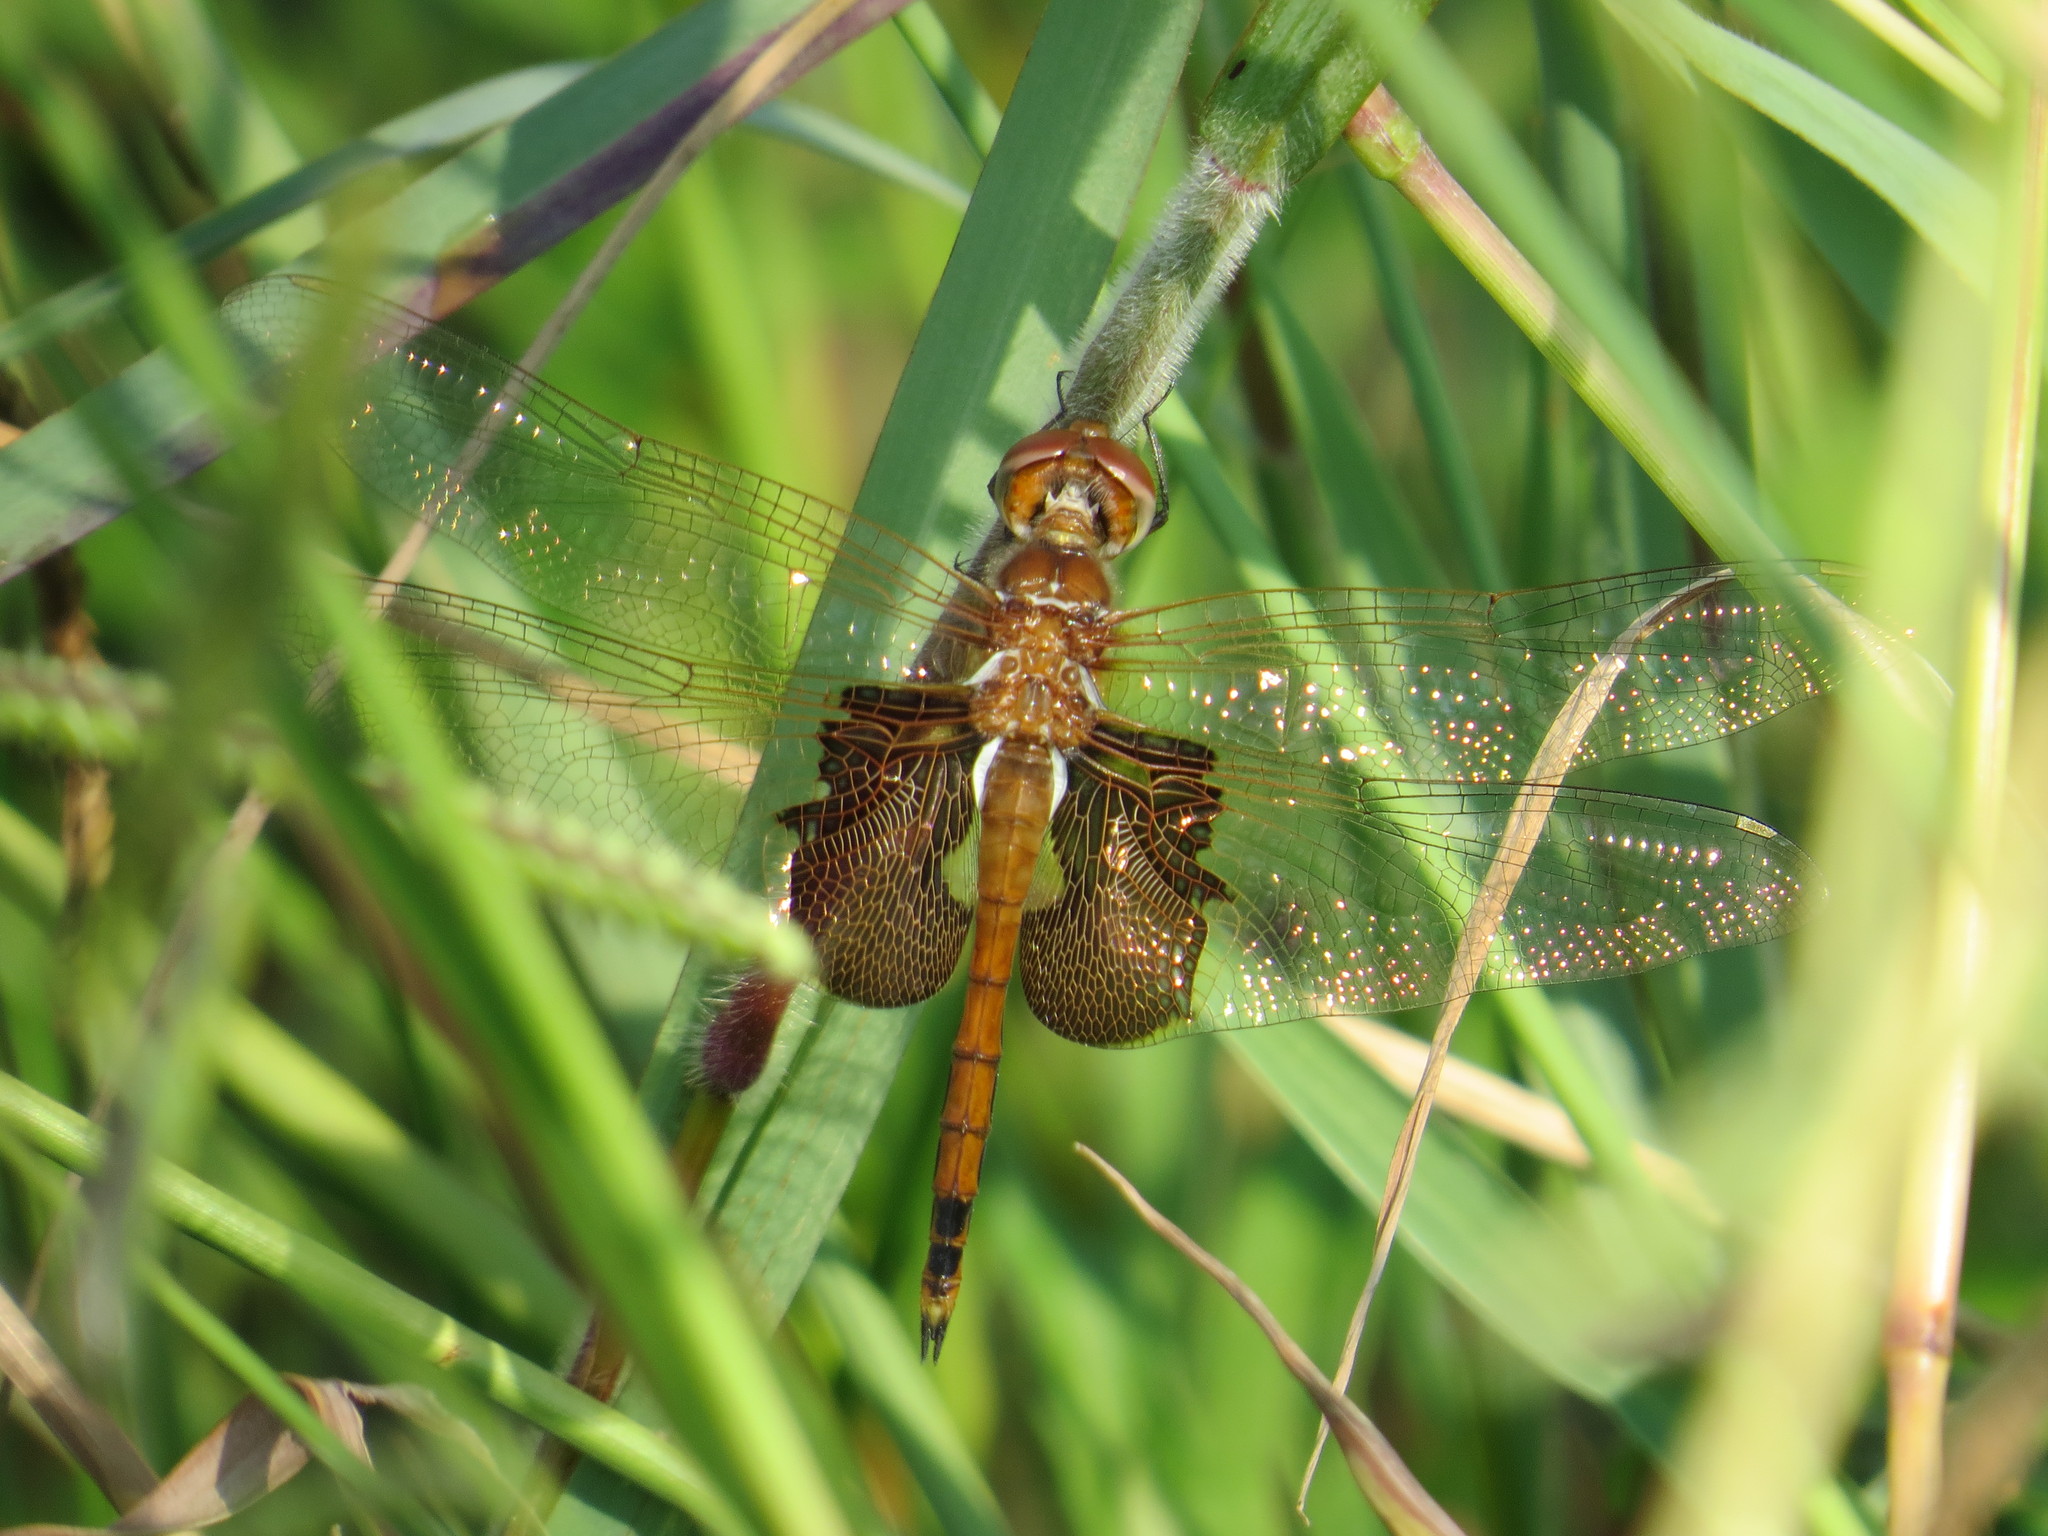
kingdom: Animalia
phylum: Arthropoda
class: Insecta
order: Odonata
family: Libellulidae
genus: Tramea
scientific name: Tramea onusta
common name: Red saddlebags
